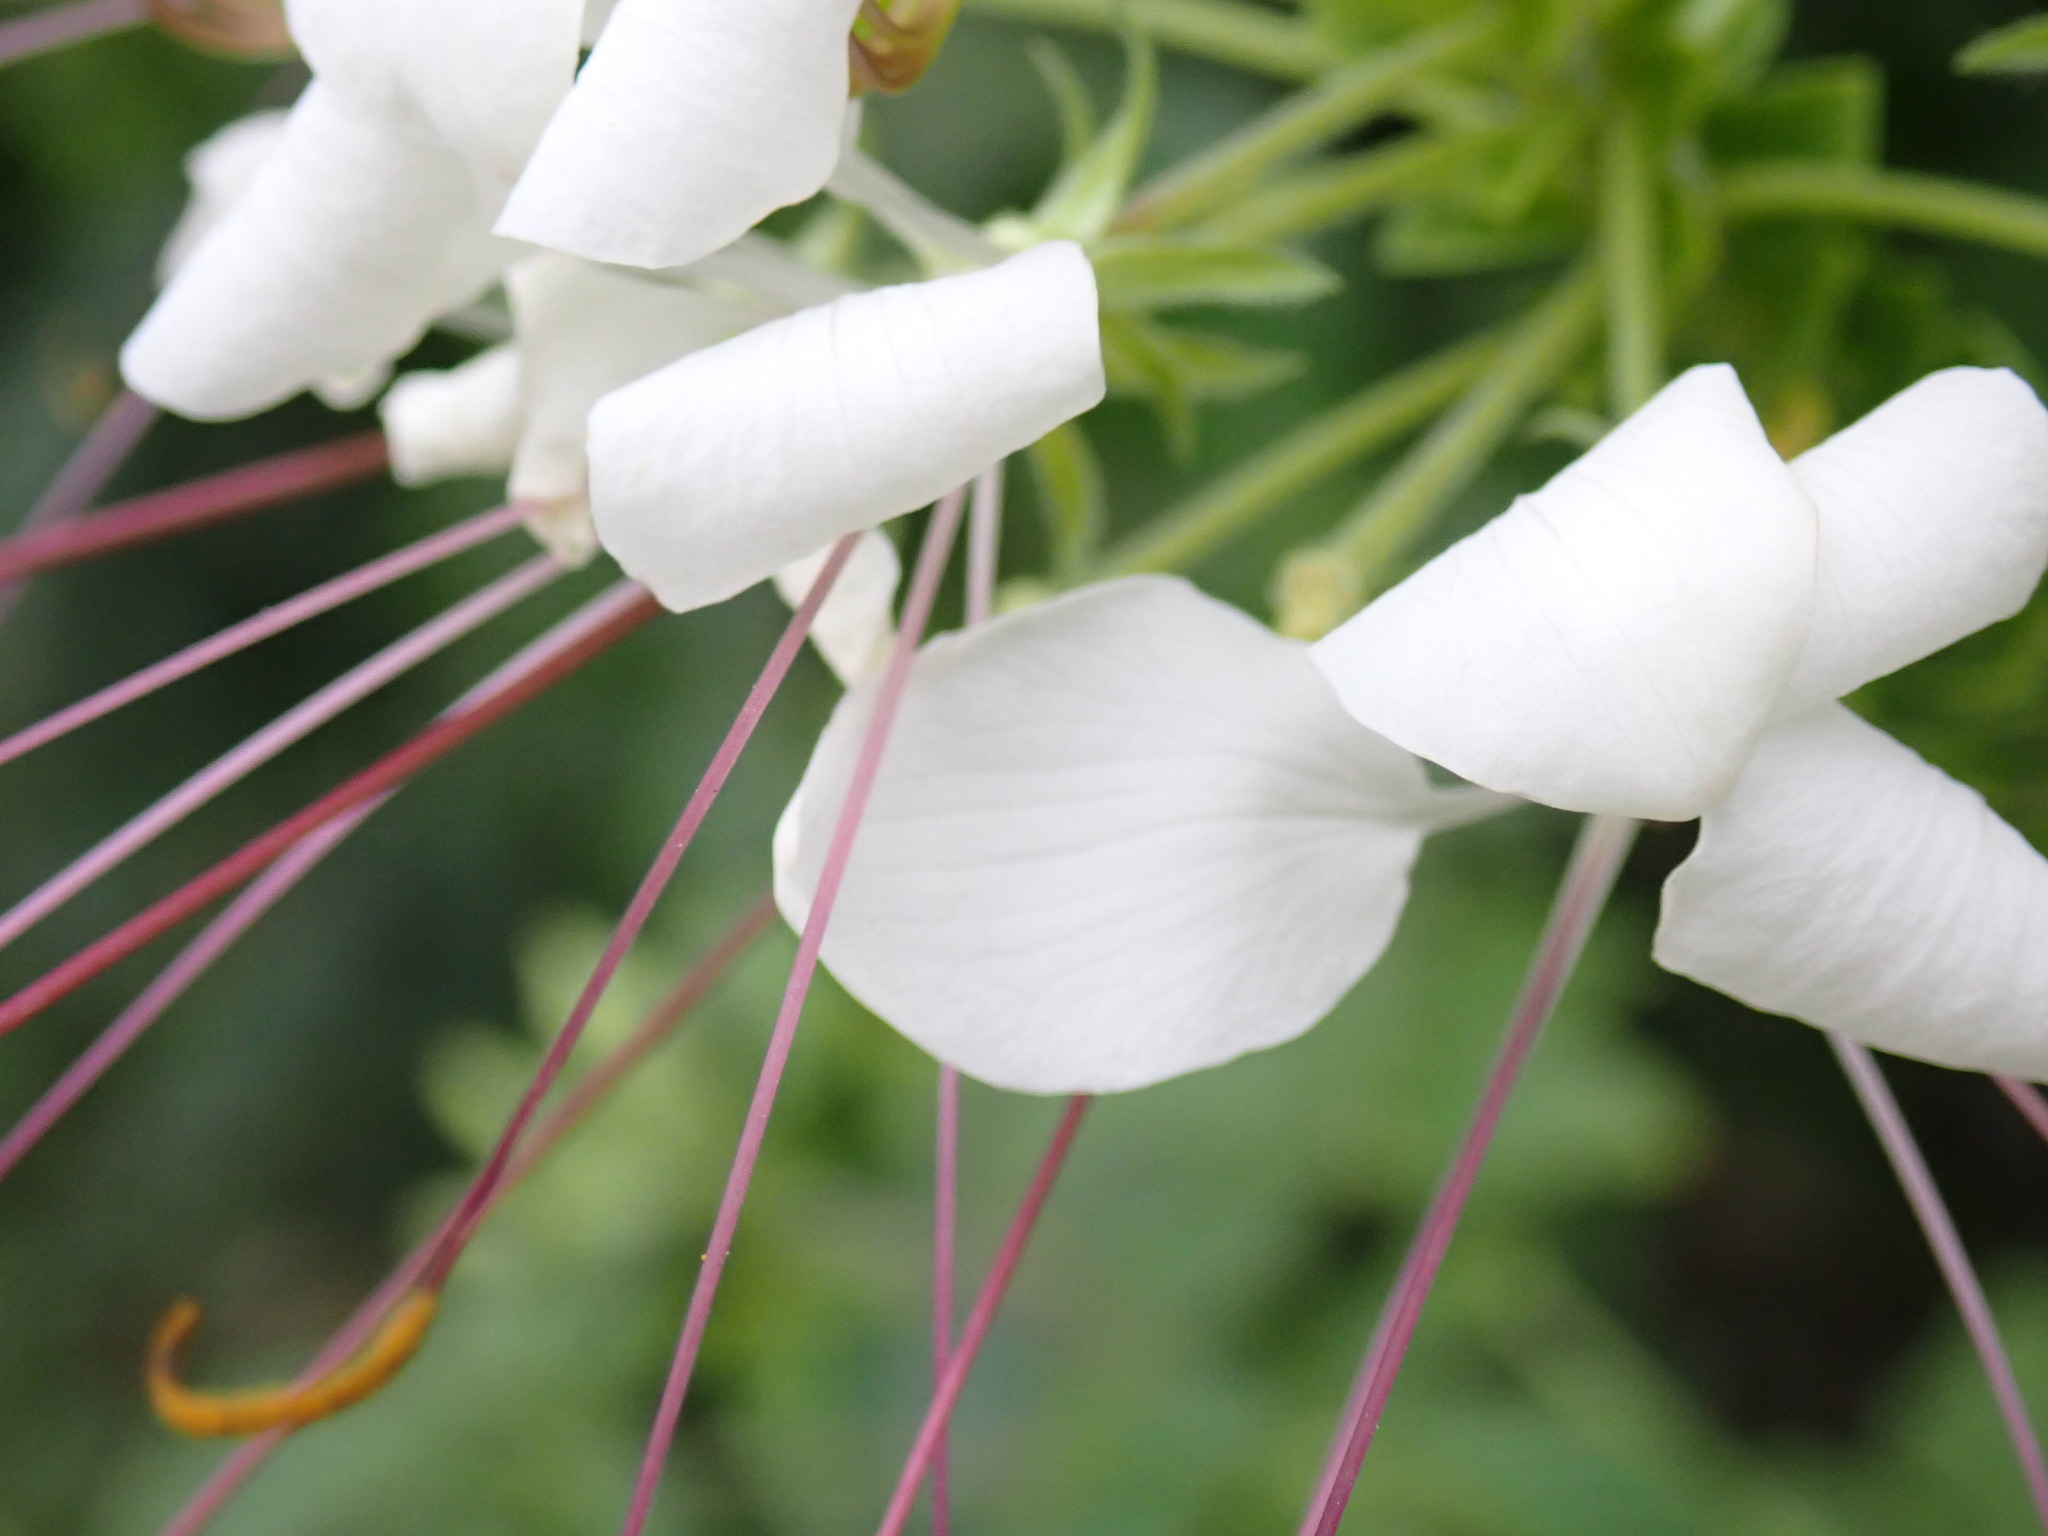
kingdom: Plantae
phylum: Tracheophyta
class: Magnoliopsida
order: Brassicales
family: Cleomaceae
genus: Tarenaya
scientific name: Tarenaya
